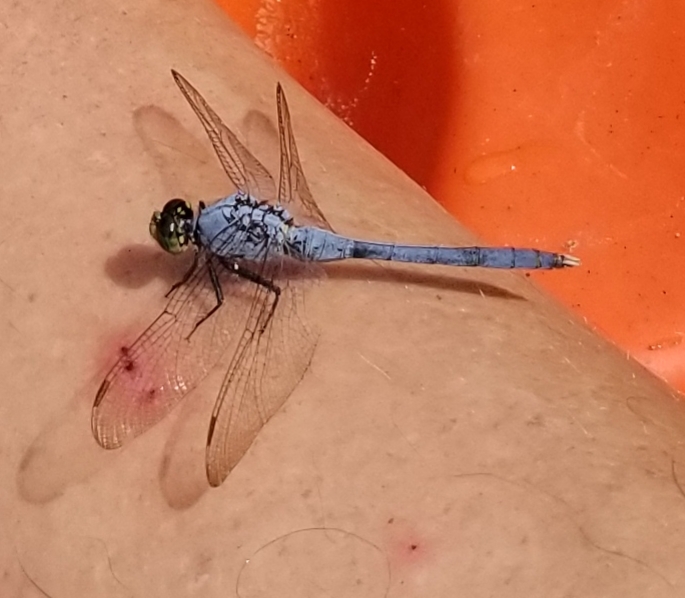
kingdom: Animalia
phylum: Arthropoda
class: Insecta
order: Odonata
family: Libellulidae
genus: Erythemis
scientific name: Erythemis simplicicollis
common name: Eastern pondhawk
